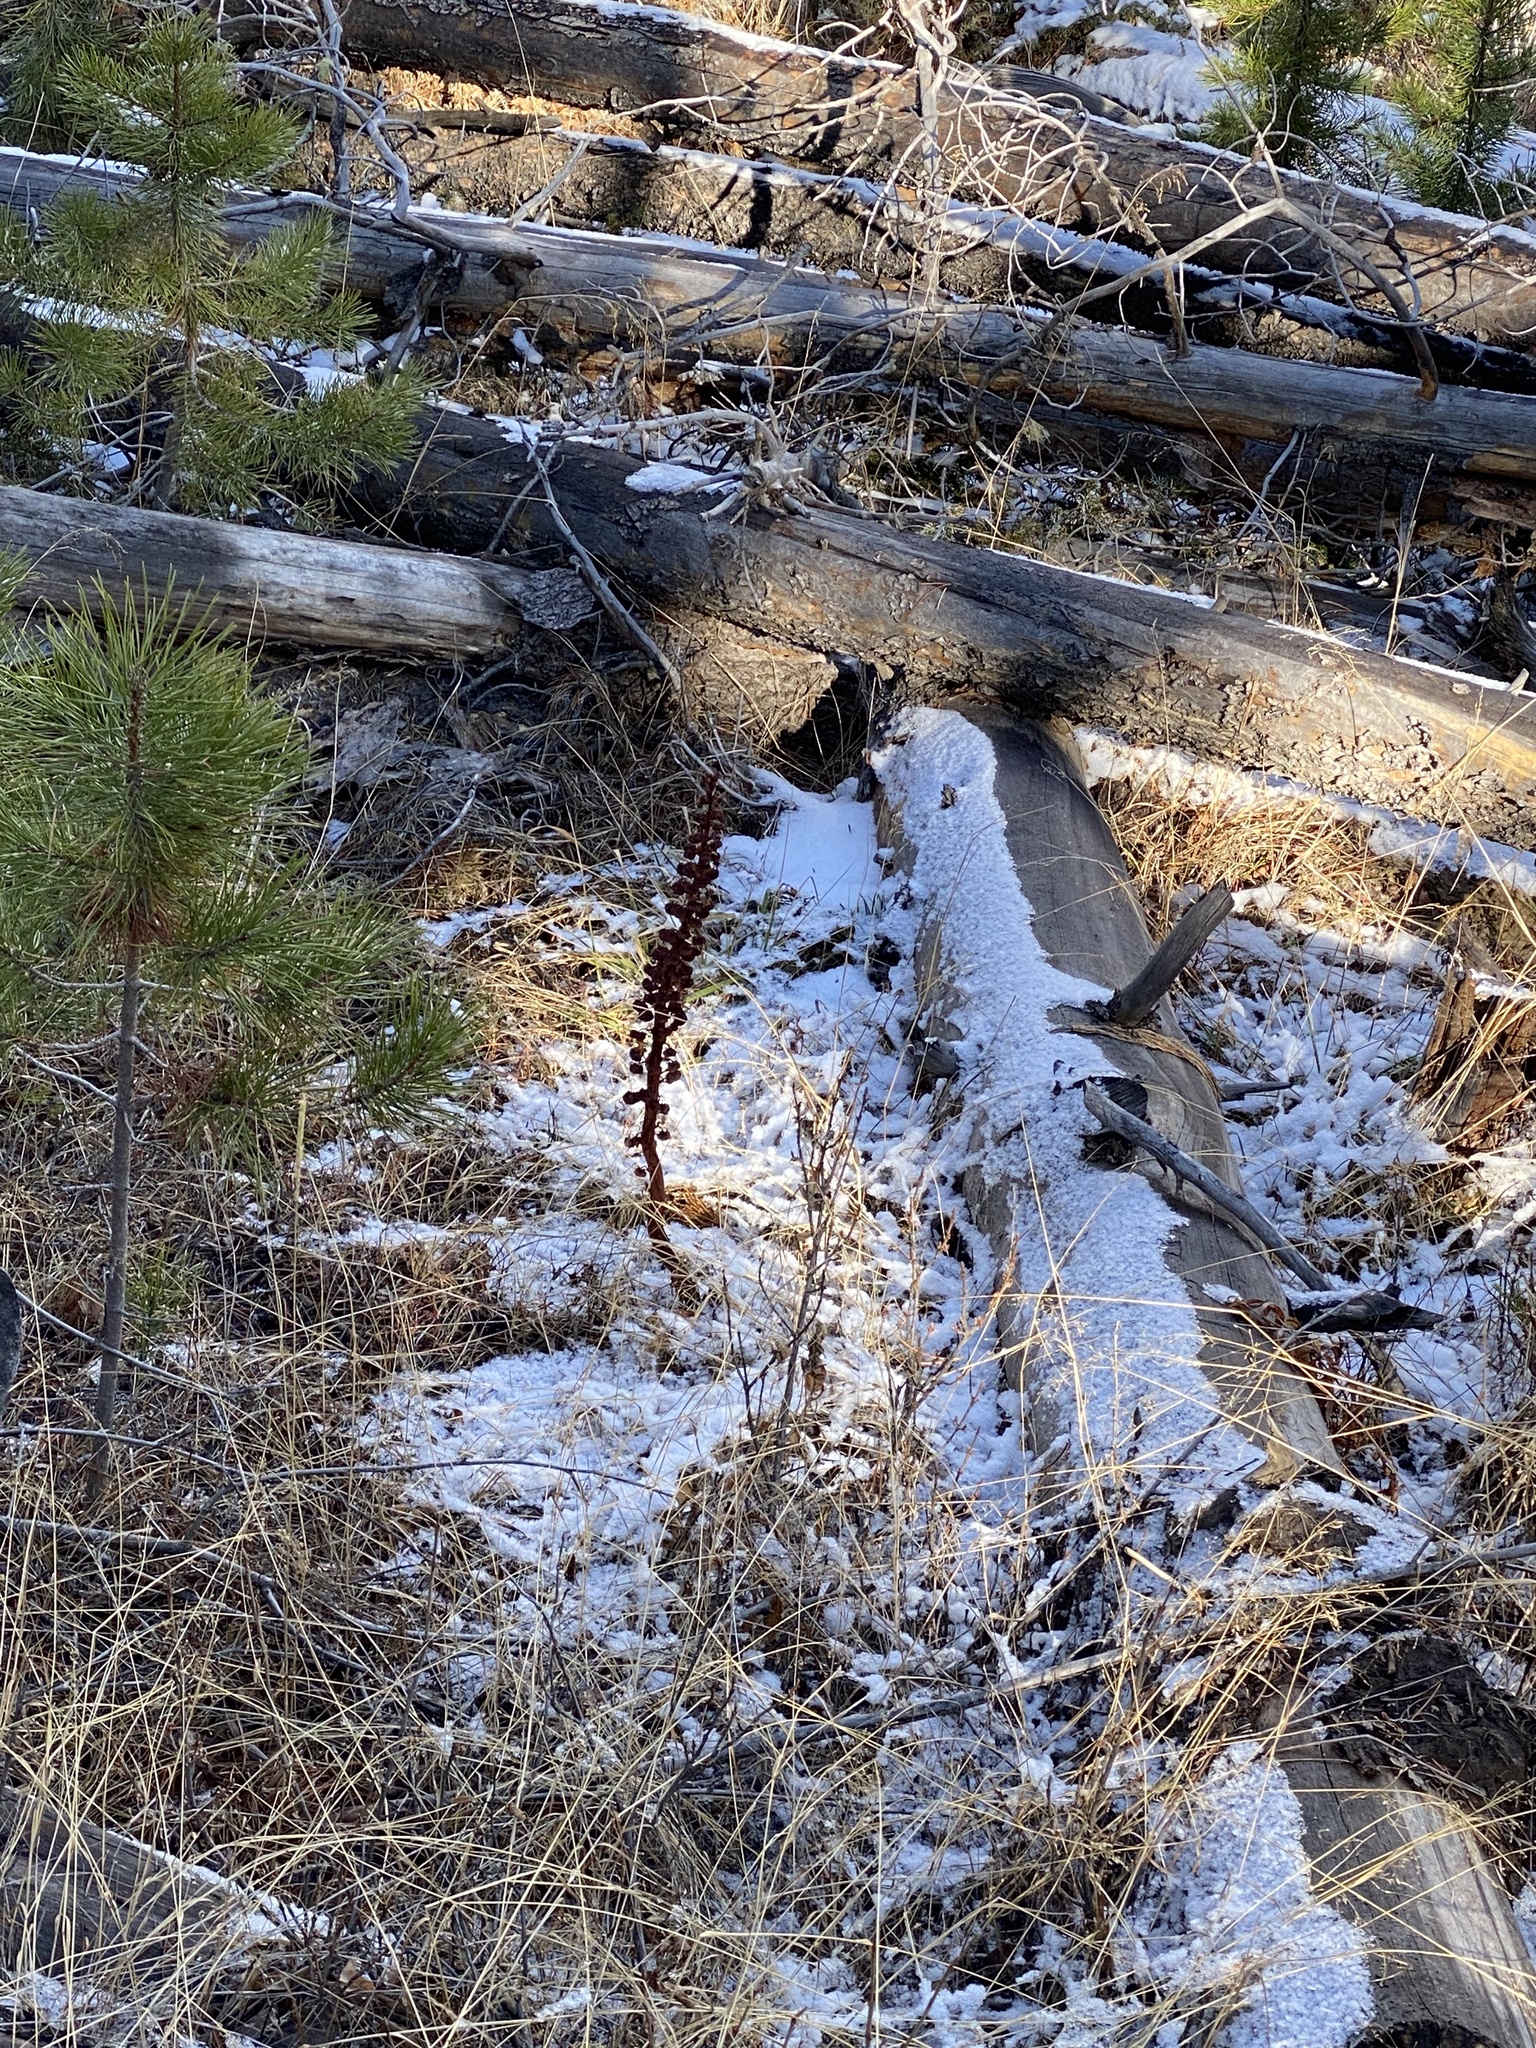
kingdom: Plantae
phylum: Tracheophyta
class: Magnoliopsida
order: Ericales
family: Ericaceae
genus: Pterospora
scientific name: Pterospora andromedea
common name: Giant bird's-nest
